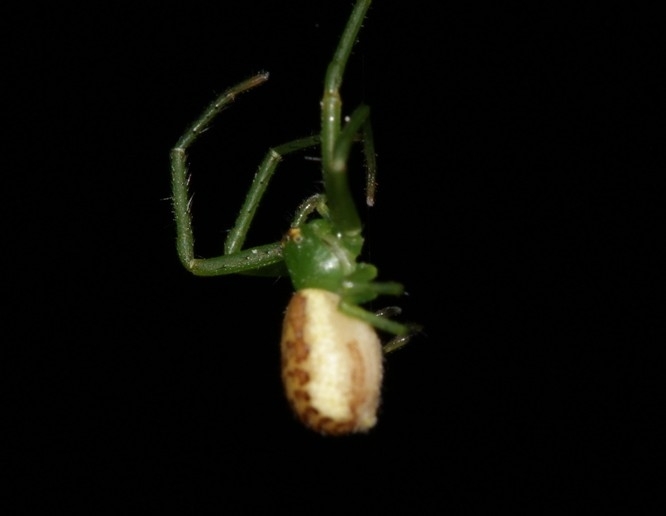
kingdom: Animalia
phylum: Arthropoda
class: Arachnida
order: Araneae
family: Thomisidae
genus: Diaea
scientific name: Diaea dorsata
